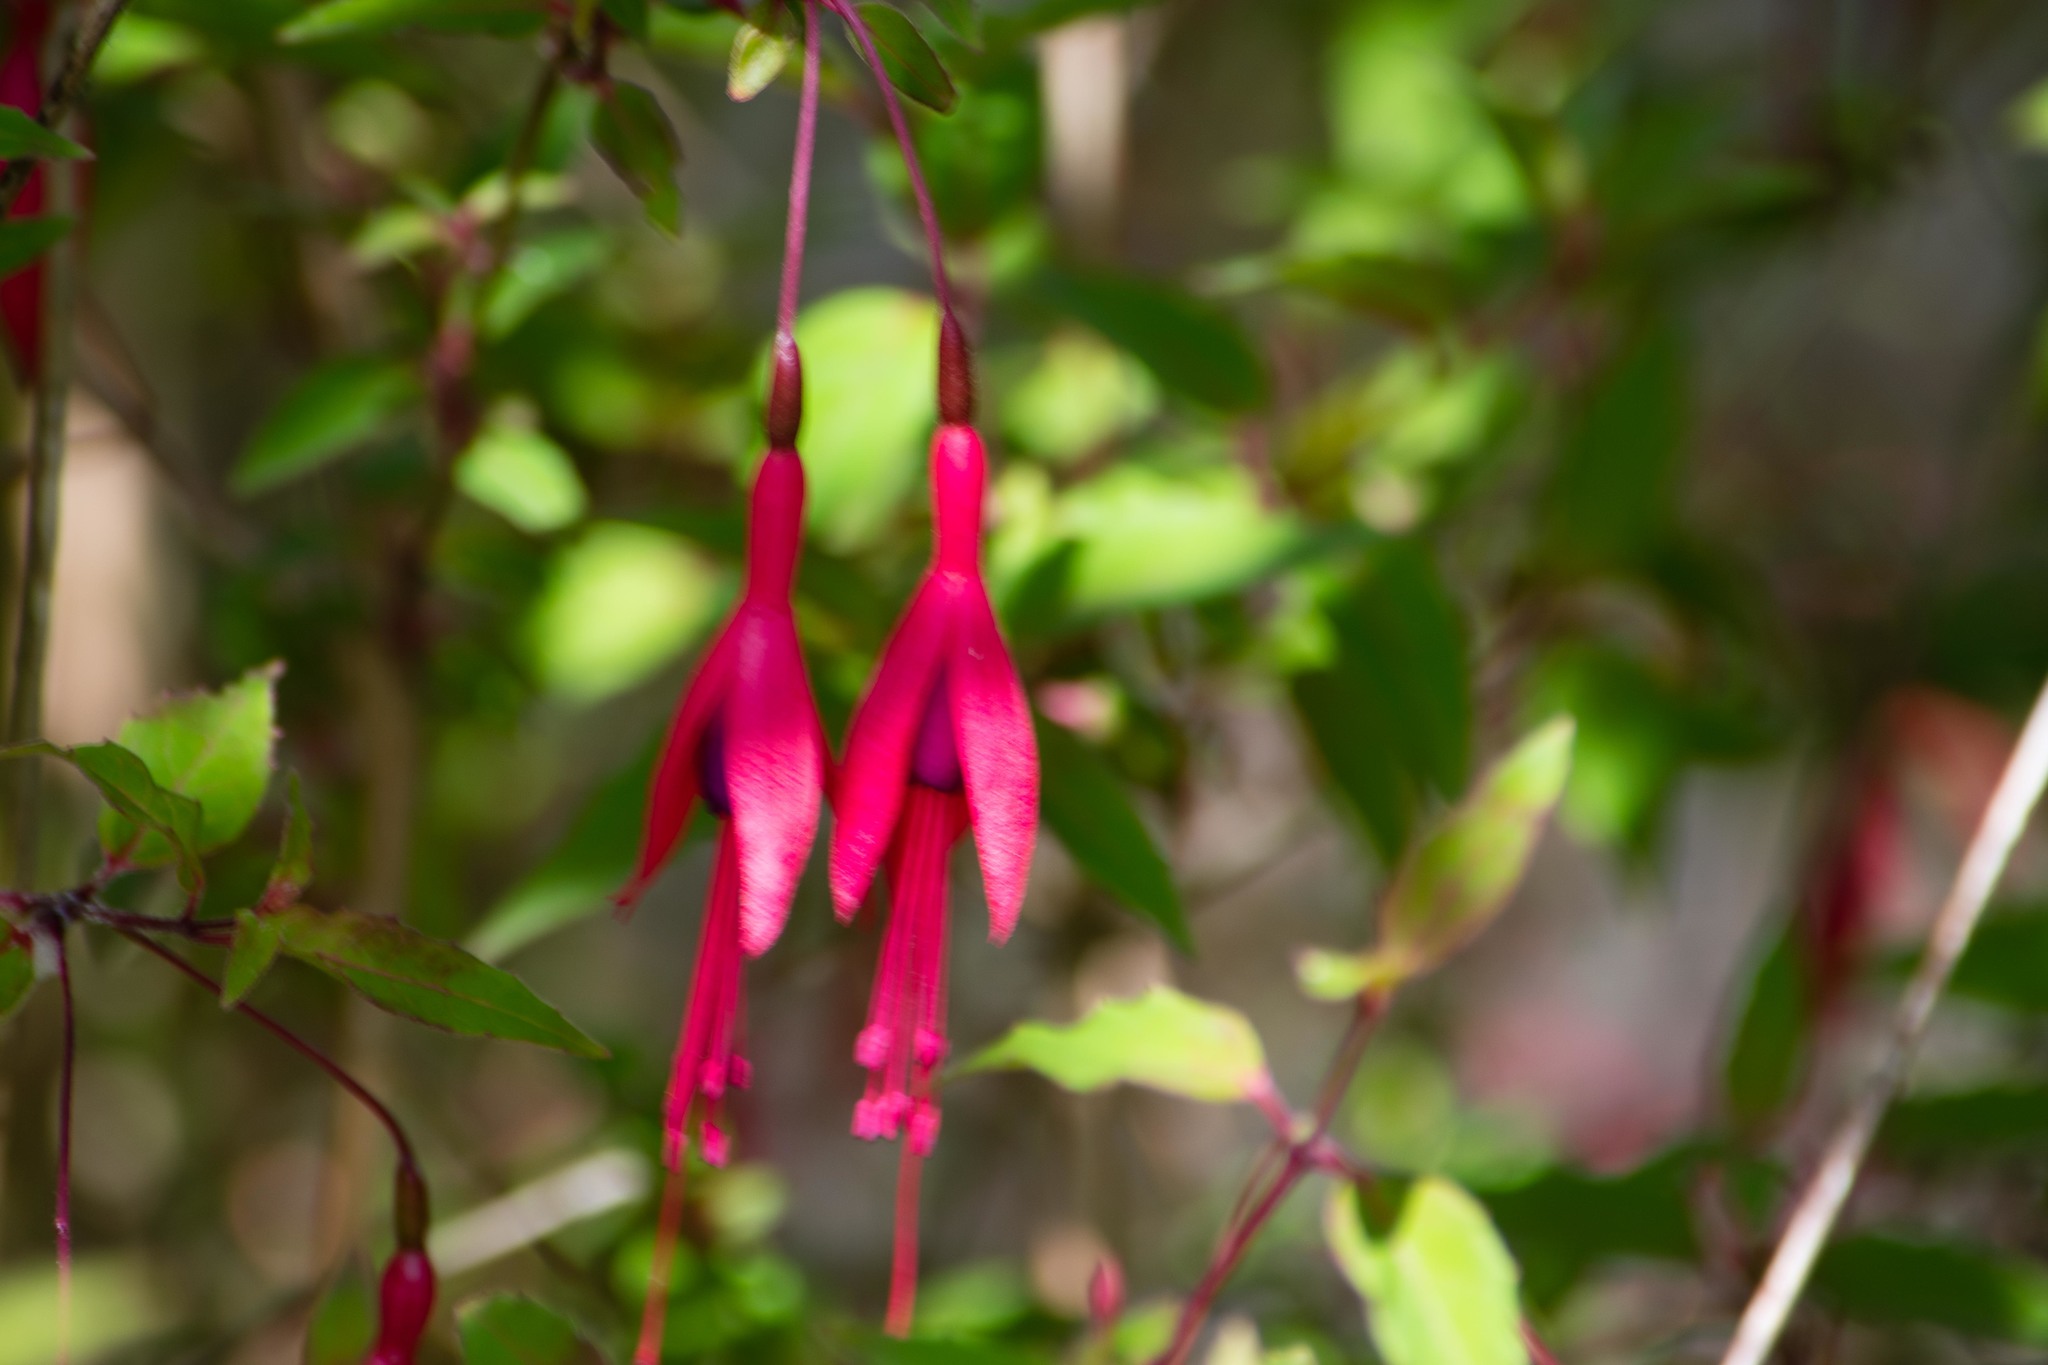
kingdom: Plantae
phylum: Tracheophyta
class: Magnoliopsida
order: Myrtales
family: Onagraceae
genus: Fuchsia
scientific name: Fuchsia magellanica
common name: Hardy fuchsia
